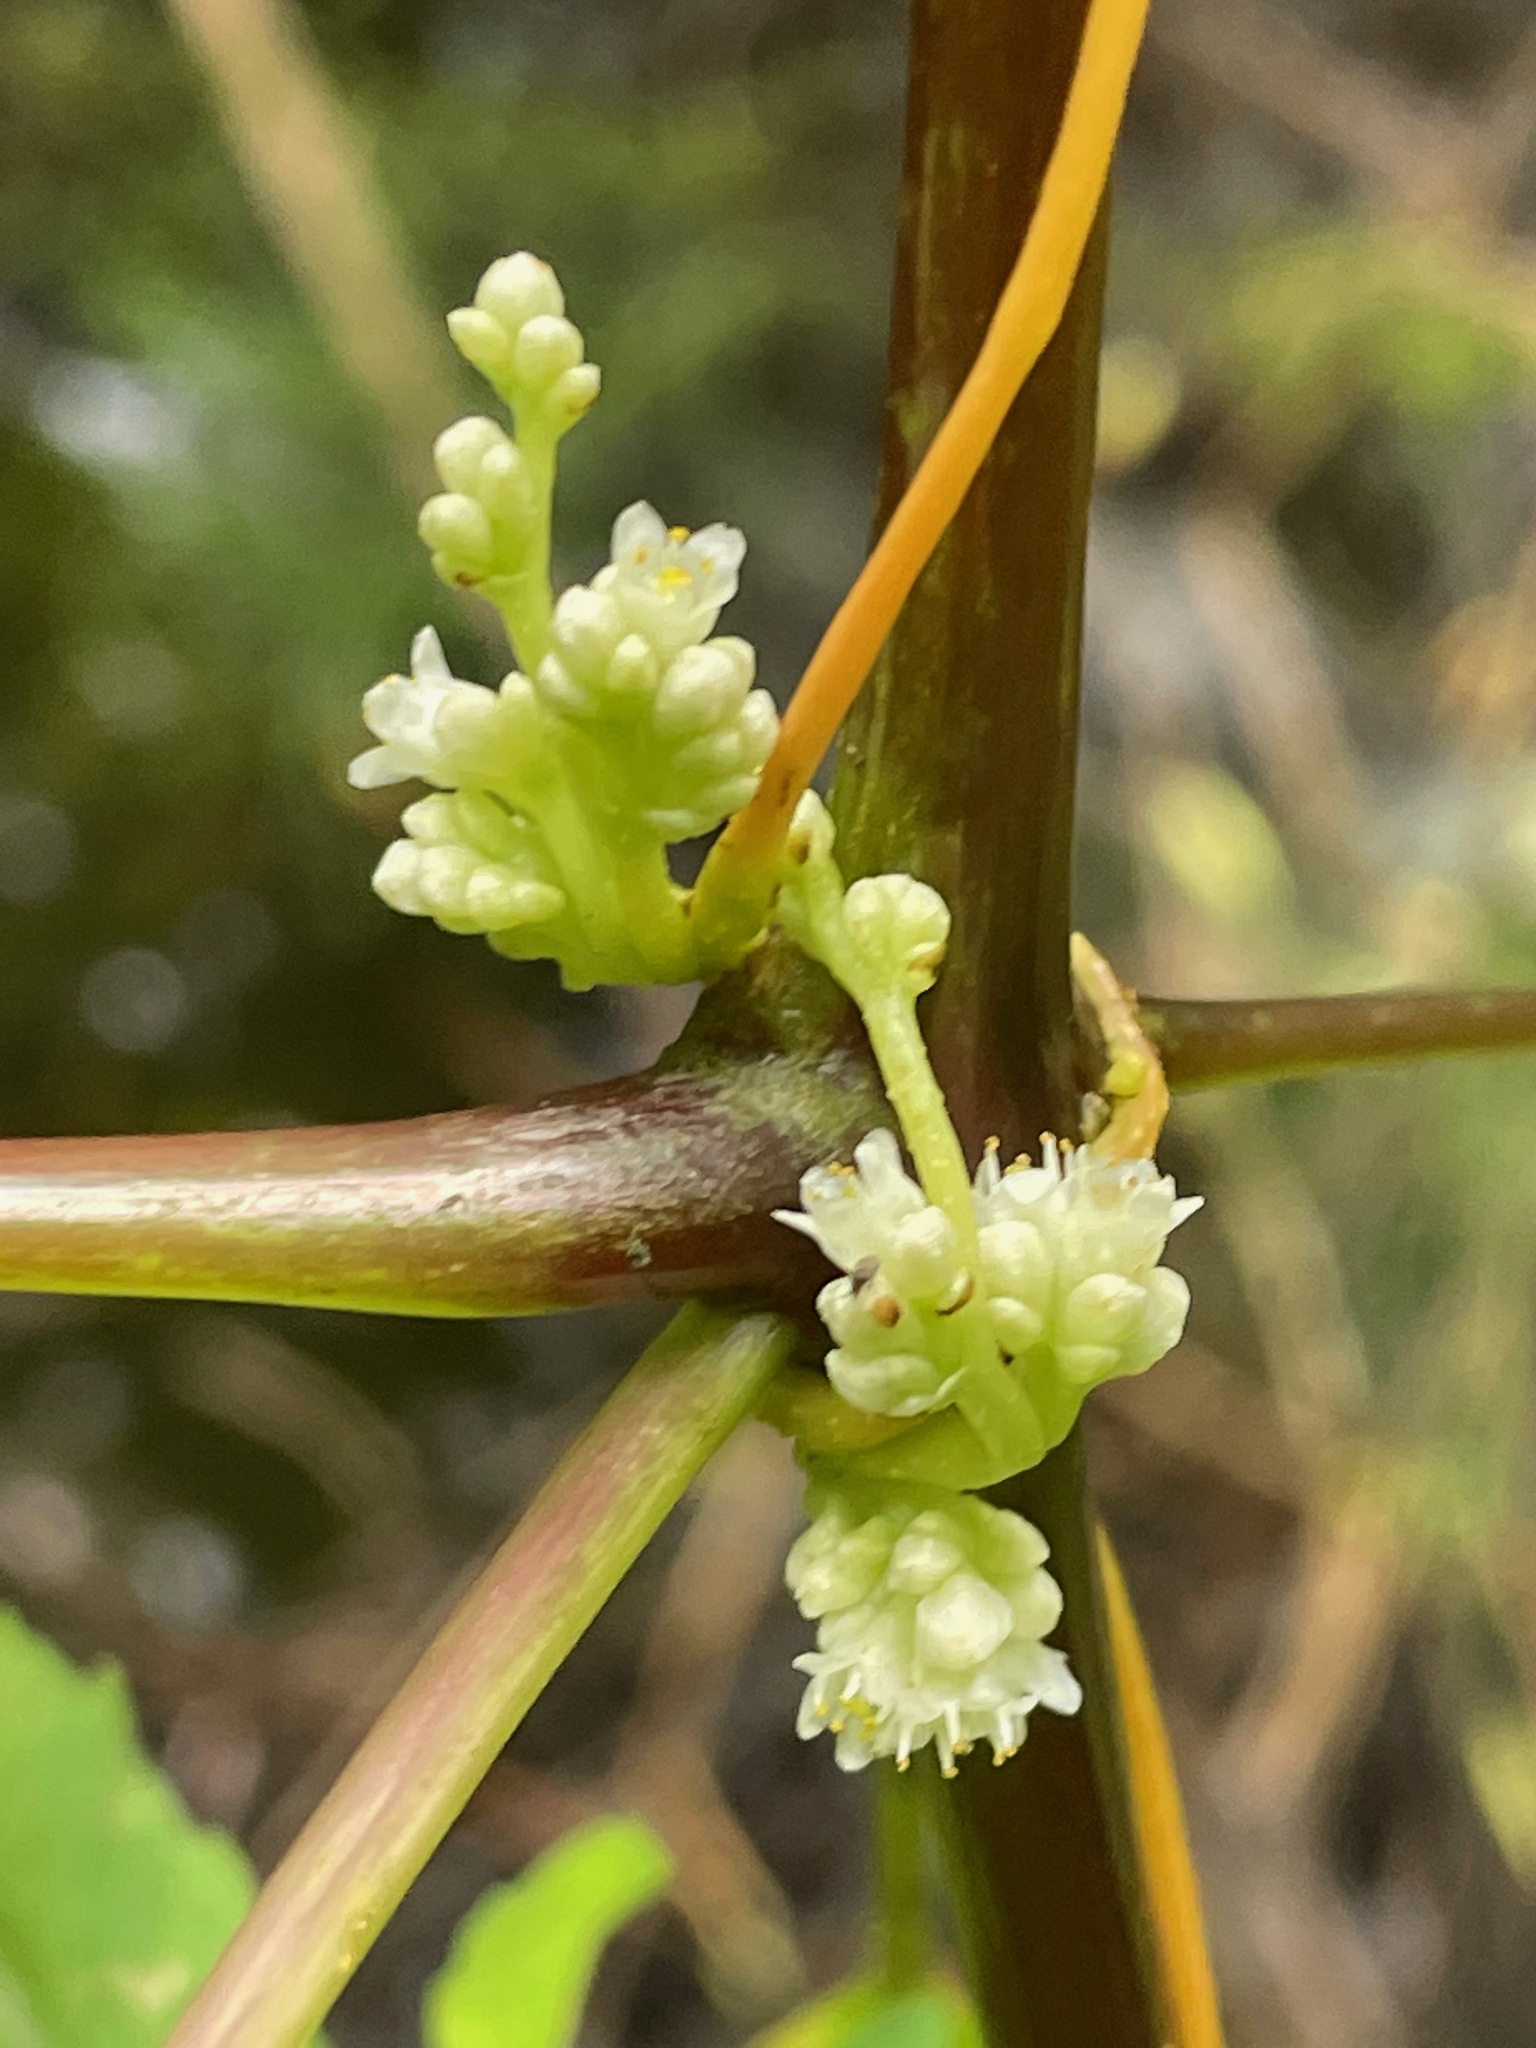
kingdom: Plantae
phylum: Tracheophyta
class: Magnoliopsida
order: Solanales
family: Convolvulaceae
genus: Cuscuta
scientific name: Cuscuta gronovii
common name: Common dodder
